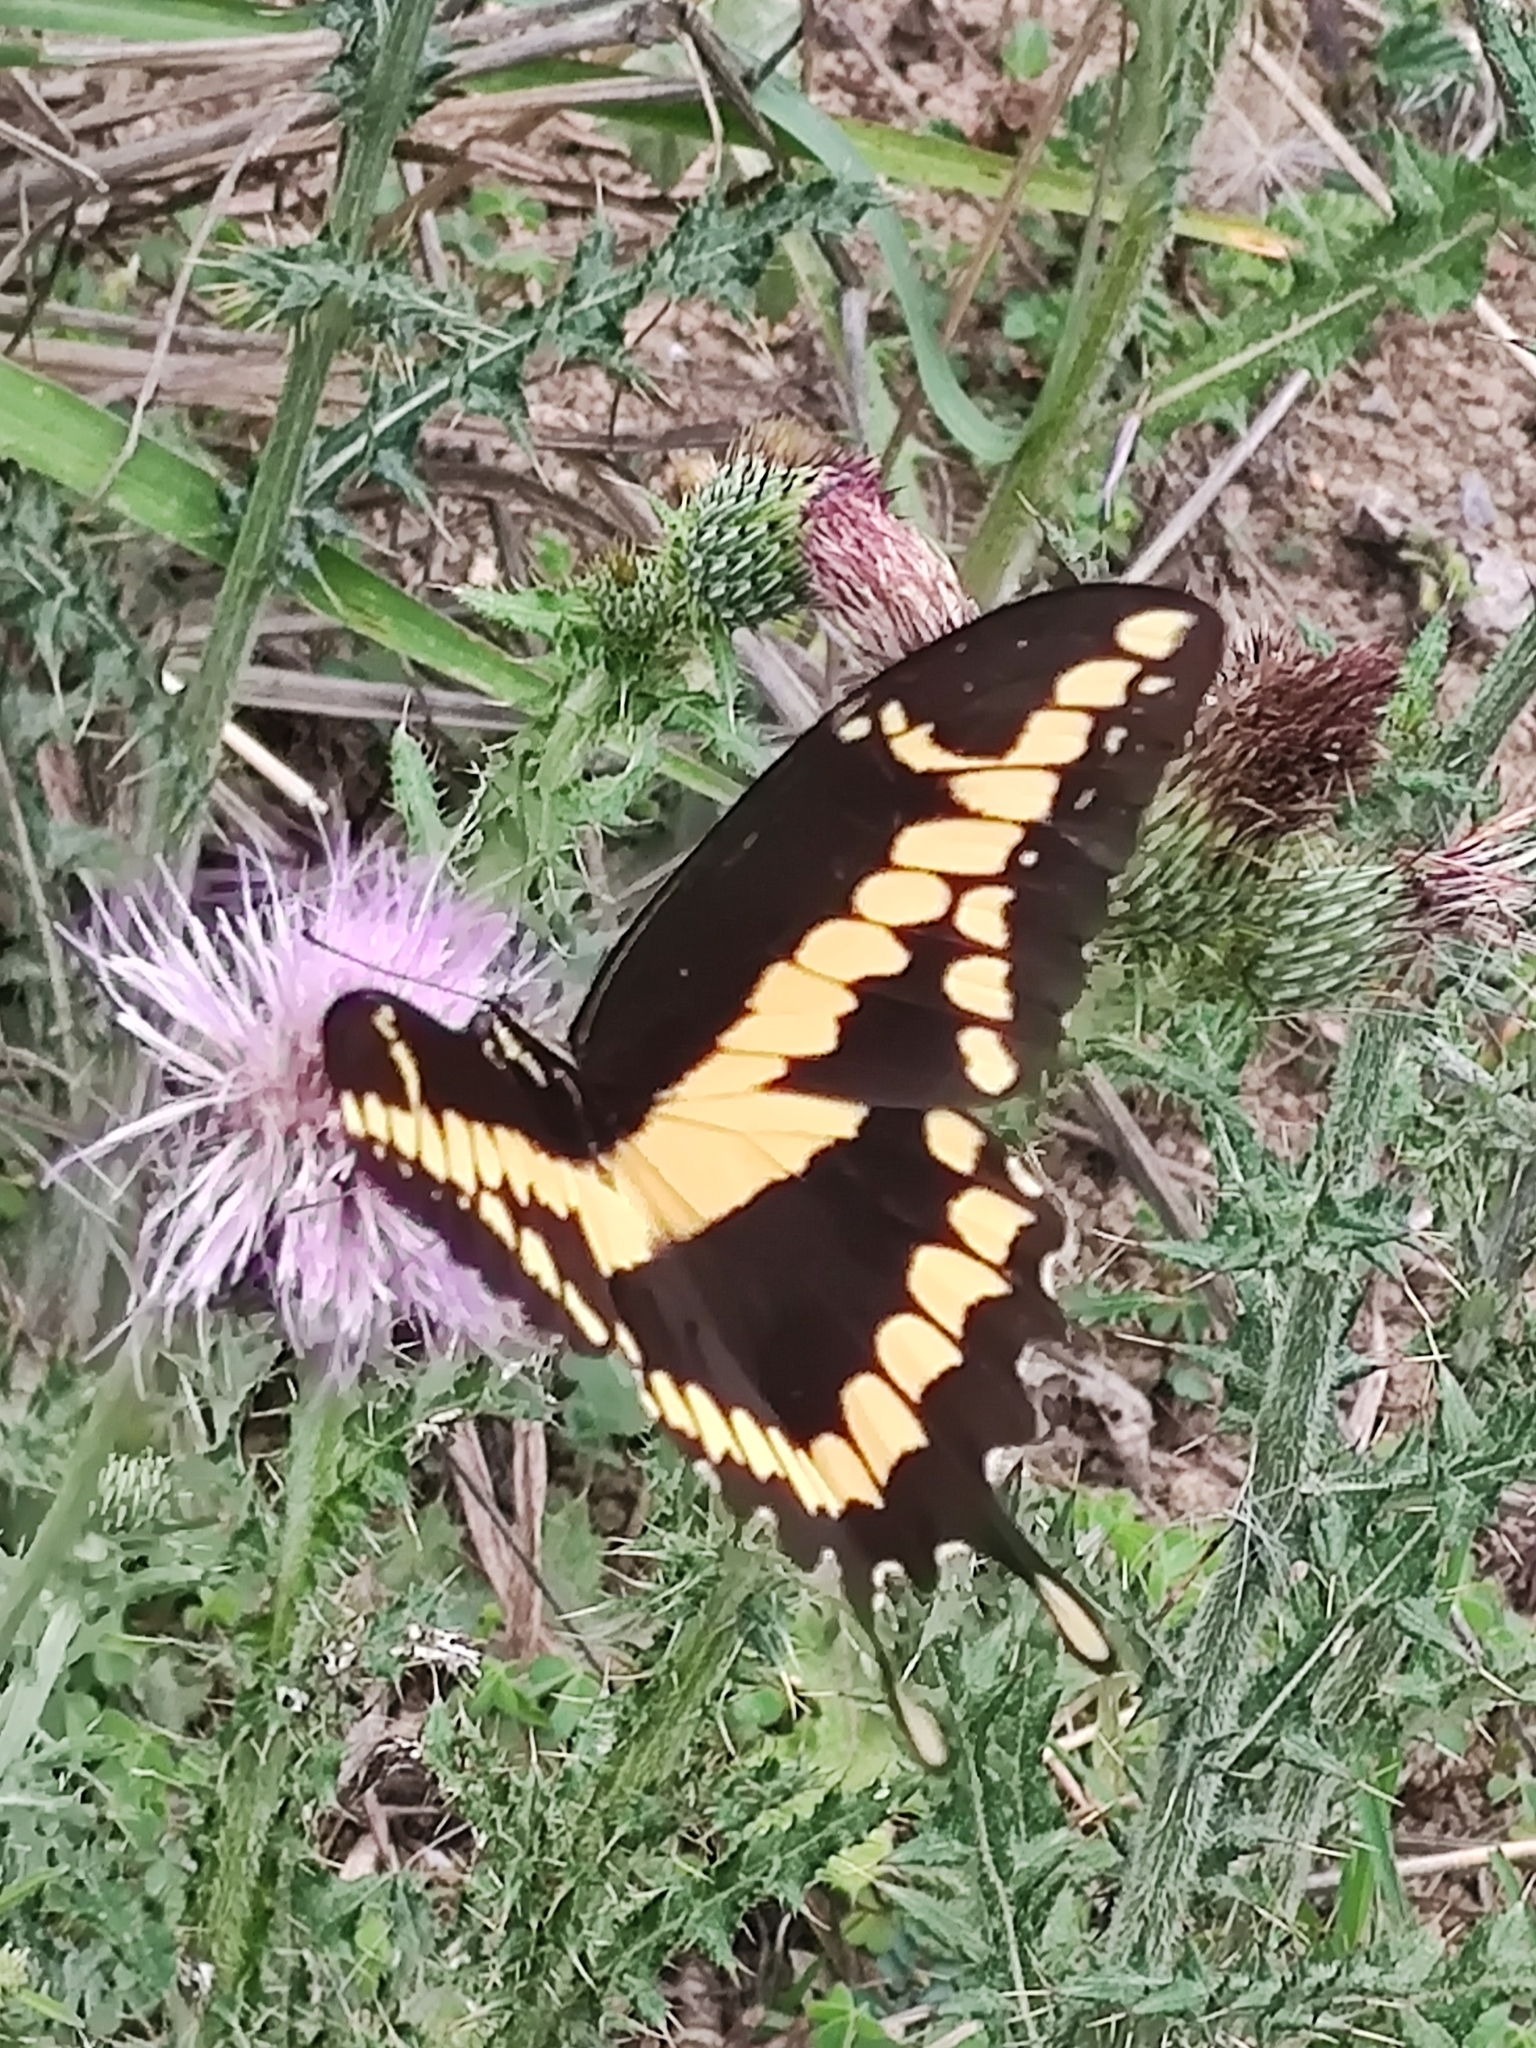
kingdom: Animalia
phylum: Arthropoda
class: Insecta
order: Lepidoptera
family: Papilionidae
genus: Papilio
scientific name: Papilio rumiko
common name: Western giant swallowtail
